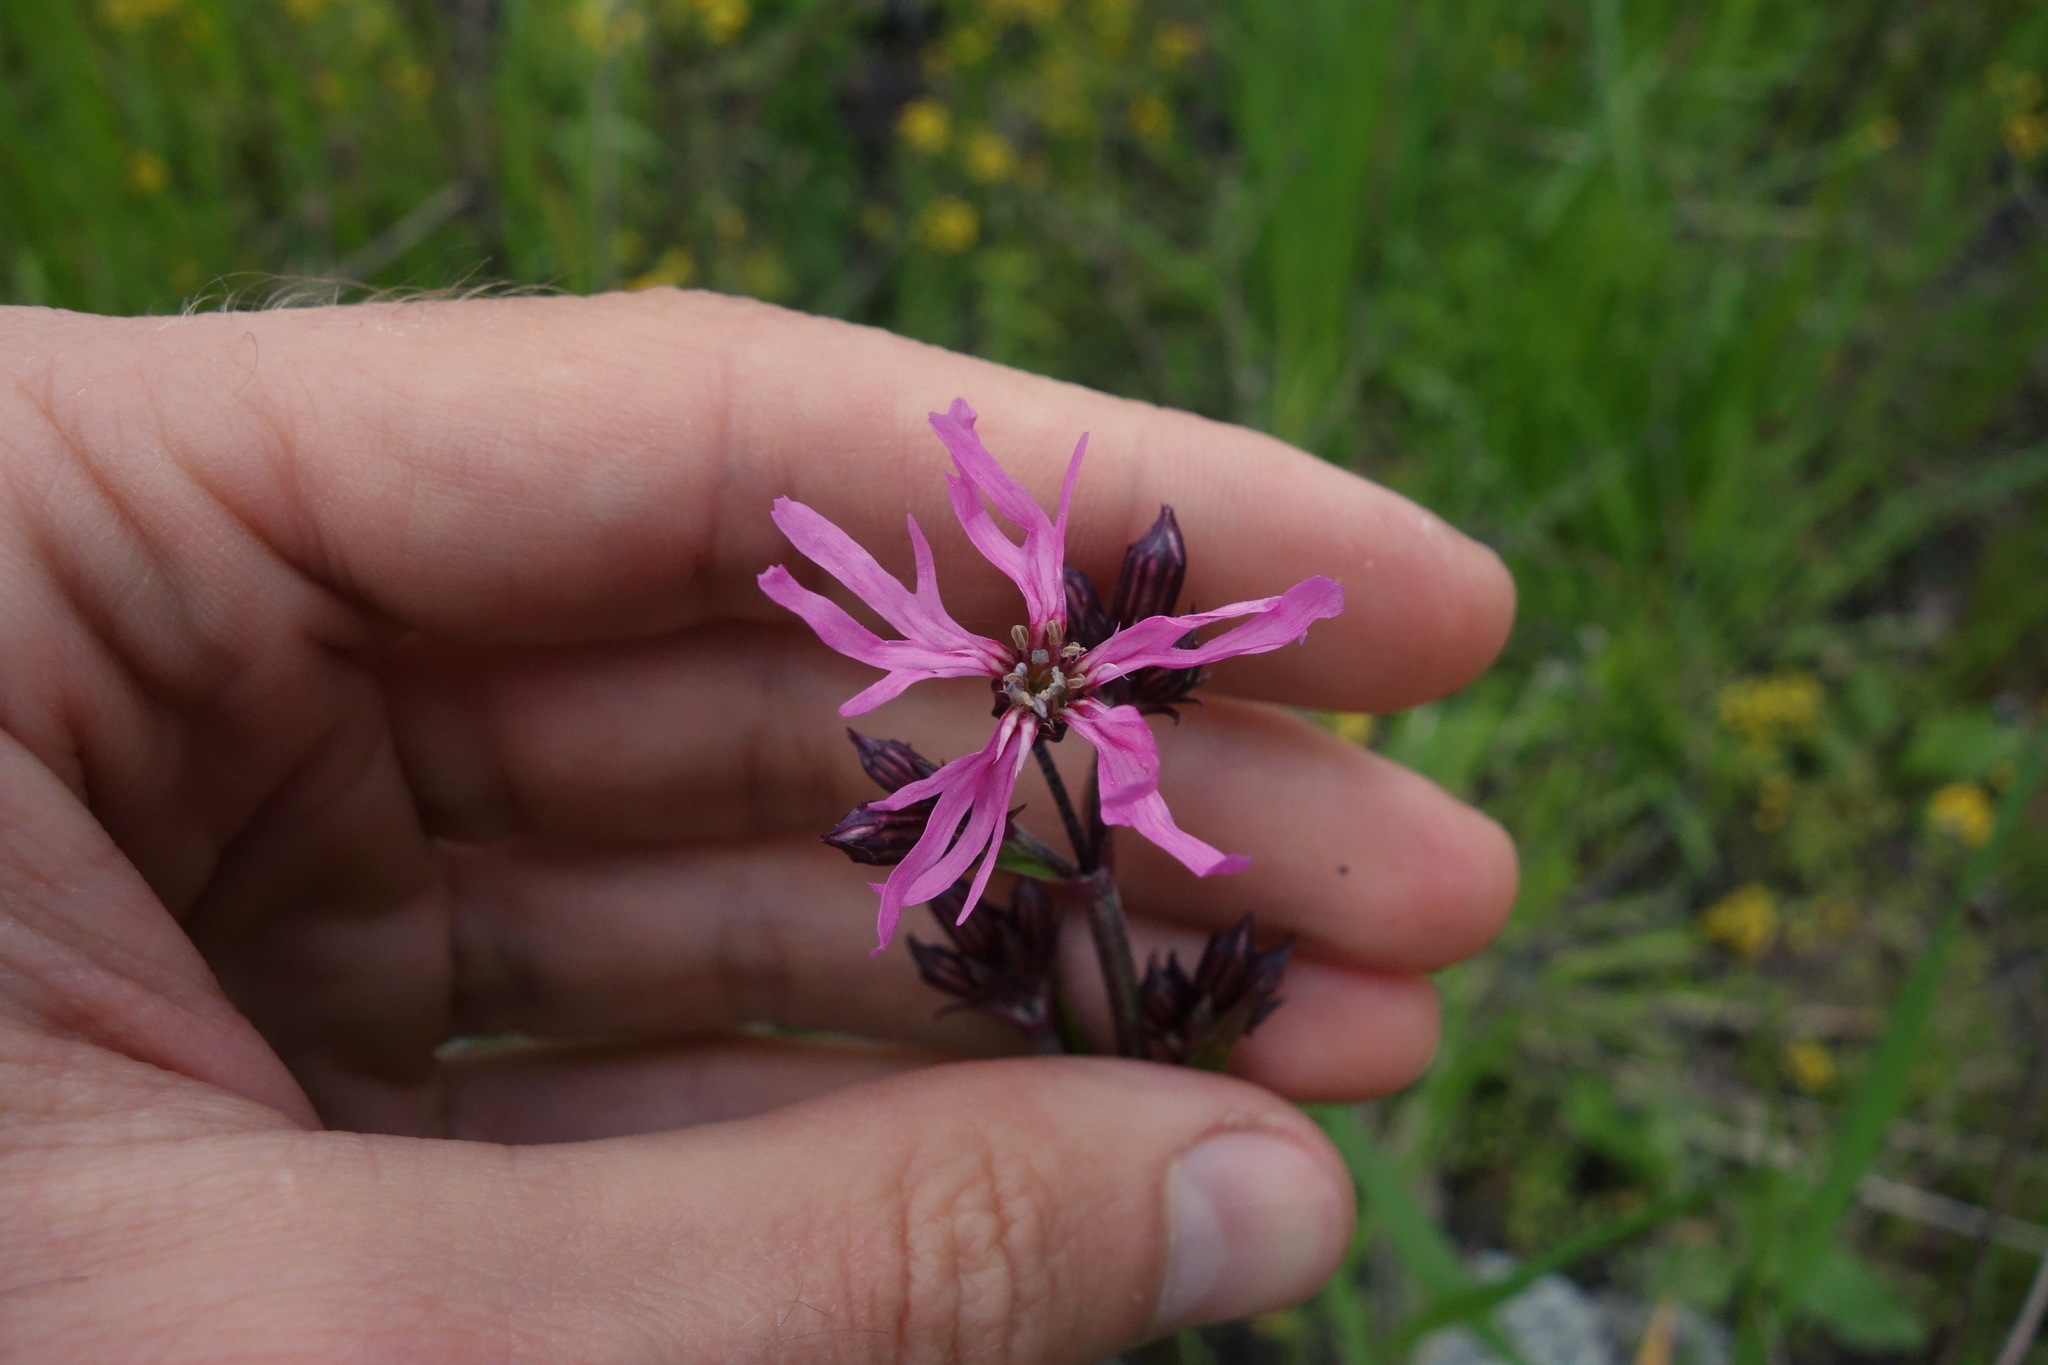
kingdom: Plantae
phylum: Tracheophyta
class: Magnoliopsida
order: Caryophyllales
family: Caryophyllaceae
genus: Silene
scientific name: Silene flos-cuculi
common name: Ragged-robin
